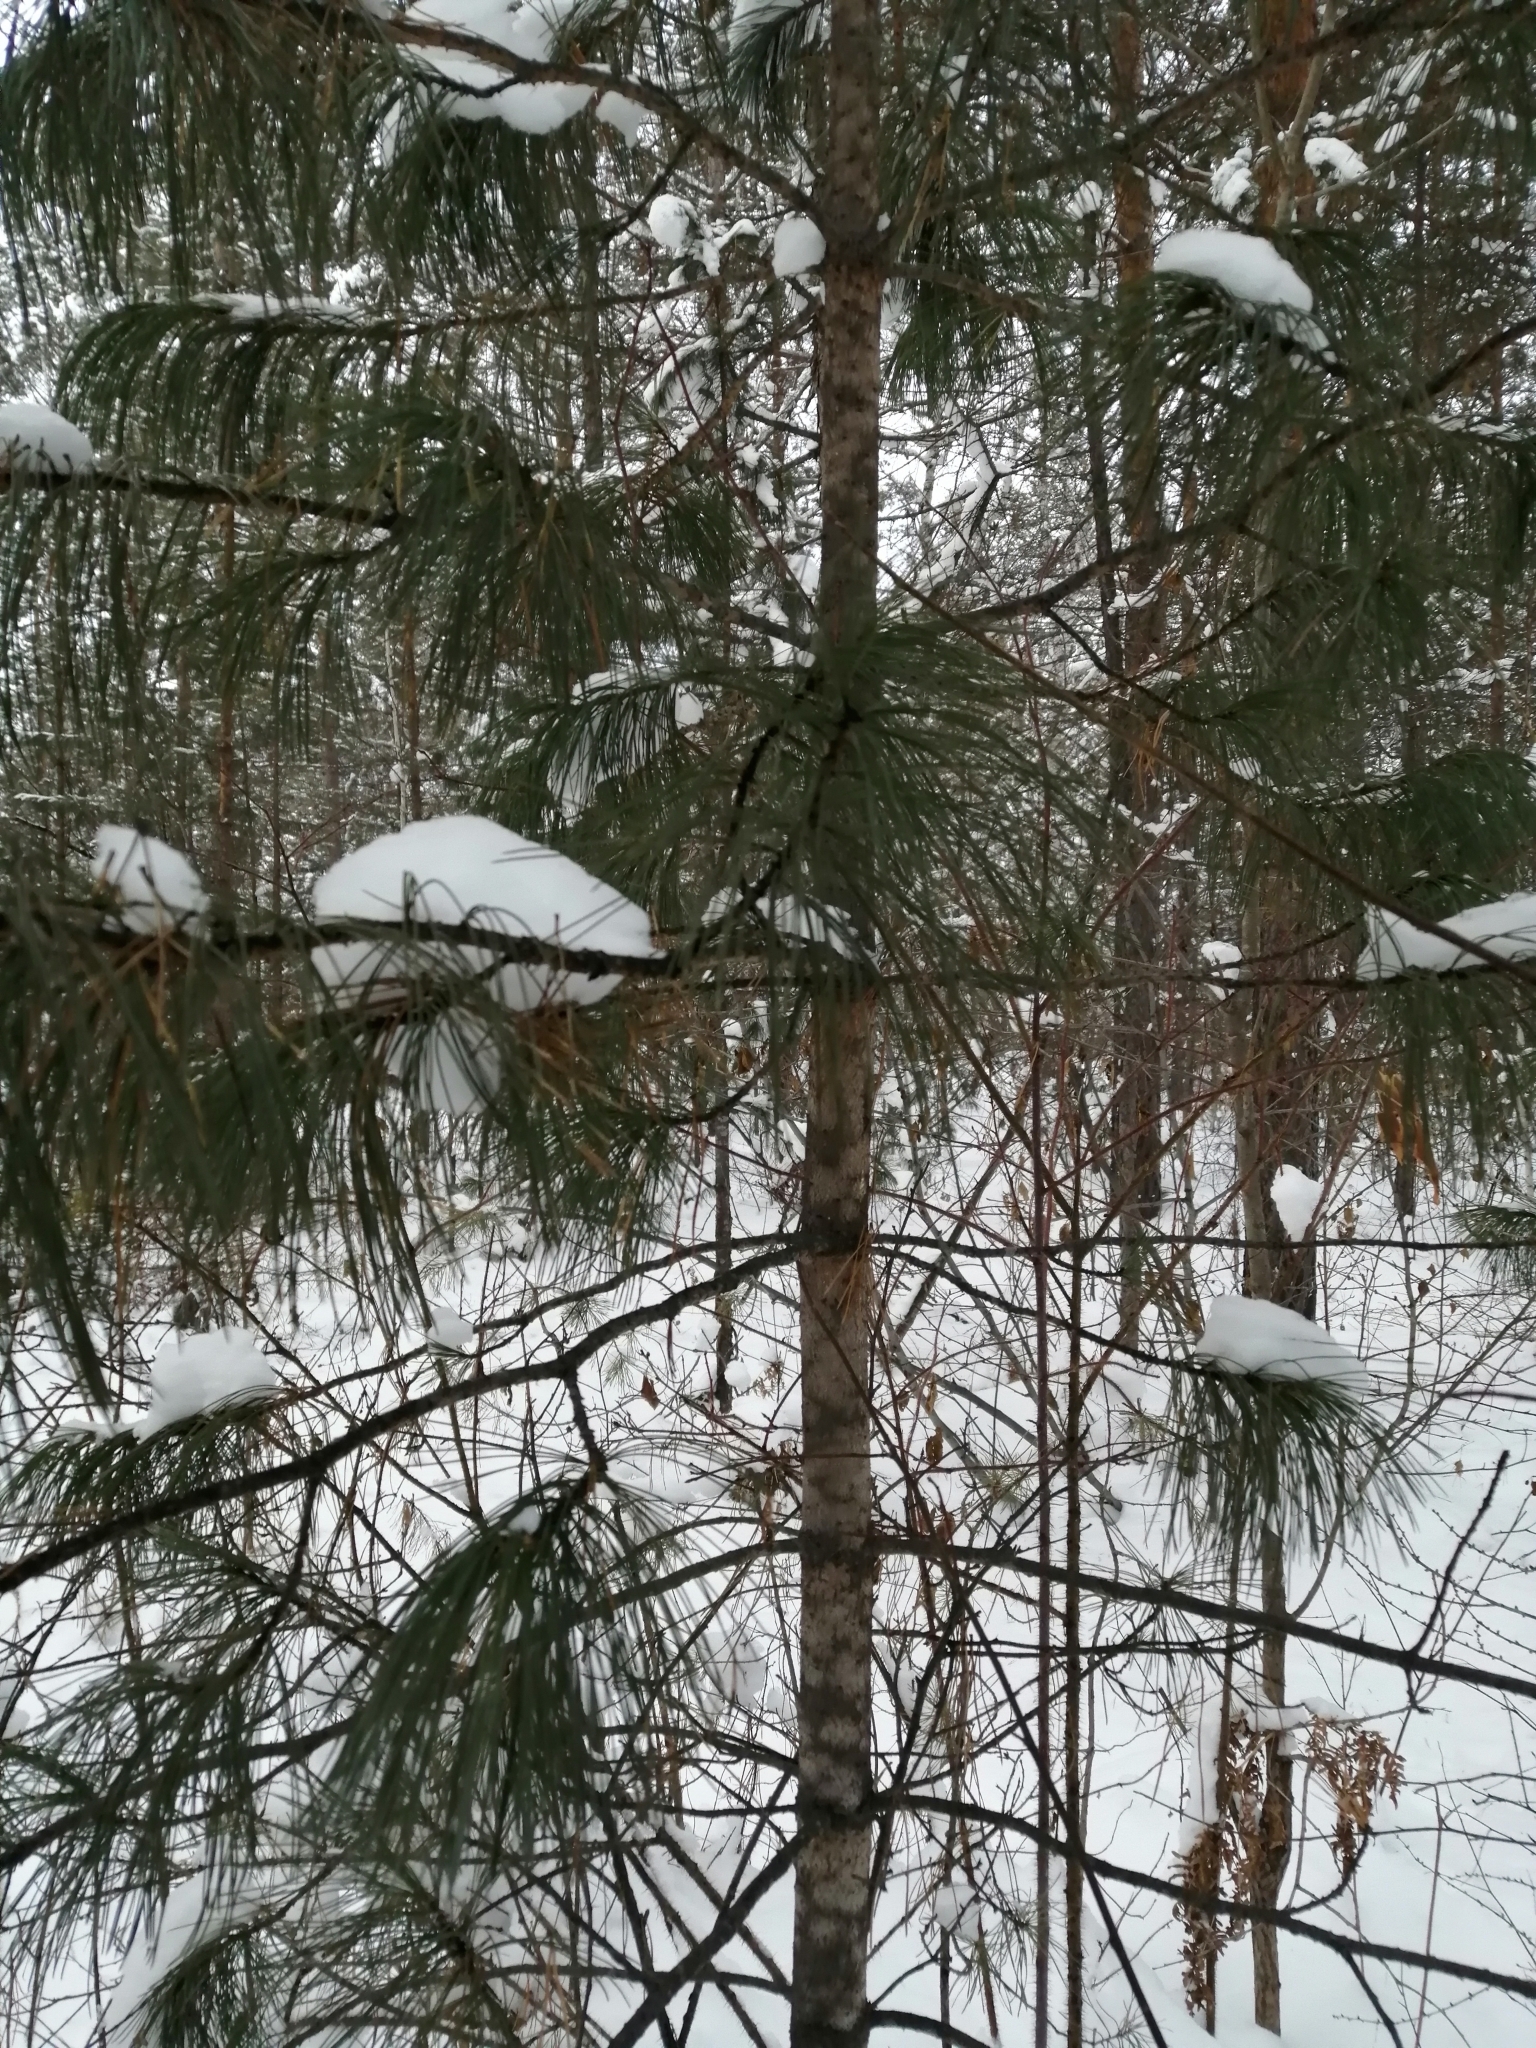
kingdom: Plantae
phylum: Tracheophyta
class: Pinopsida
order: Pinales
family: Pinaceae
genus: Pinus
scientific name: Pinus sibirica
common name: Siberian pine
